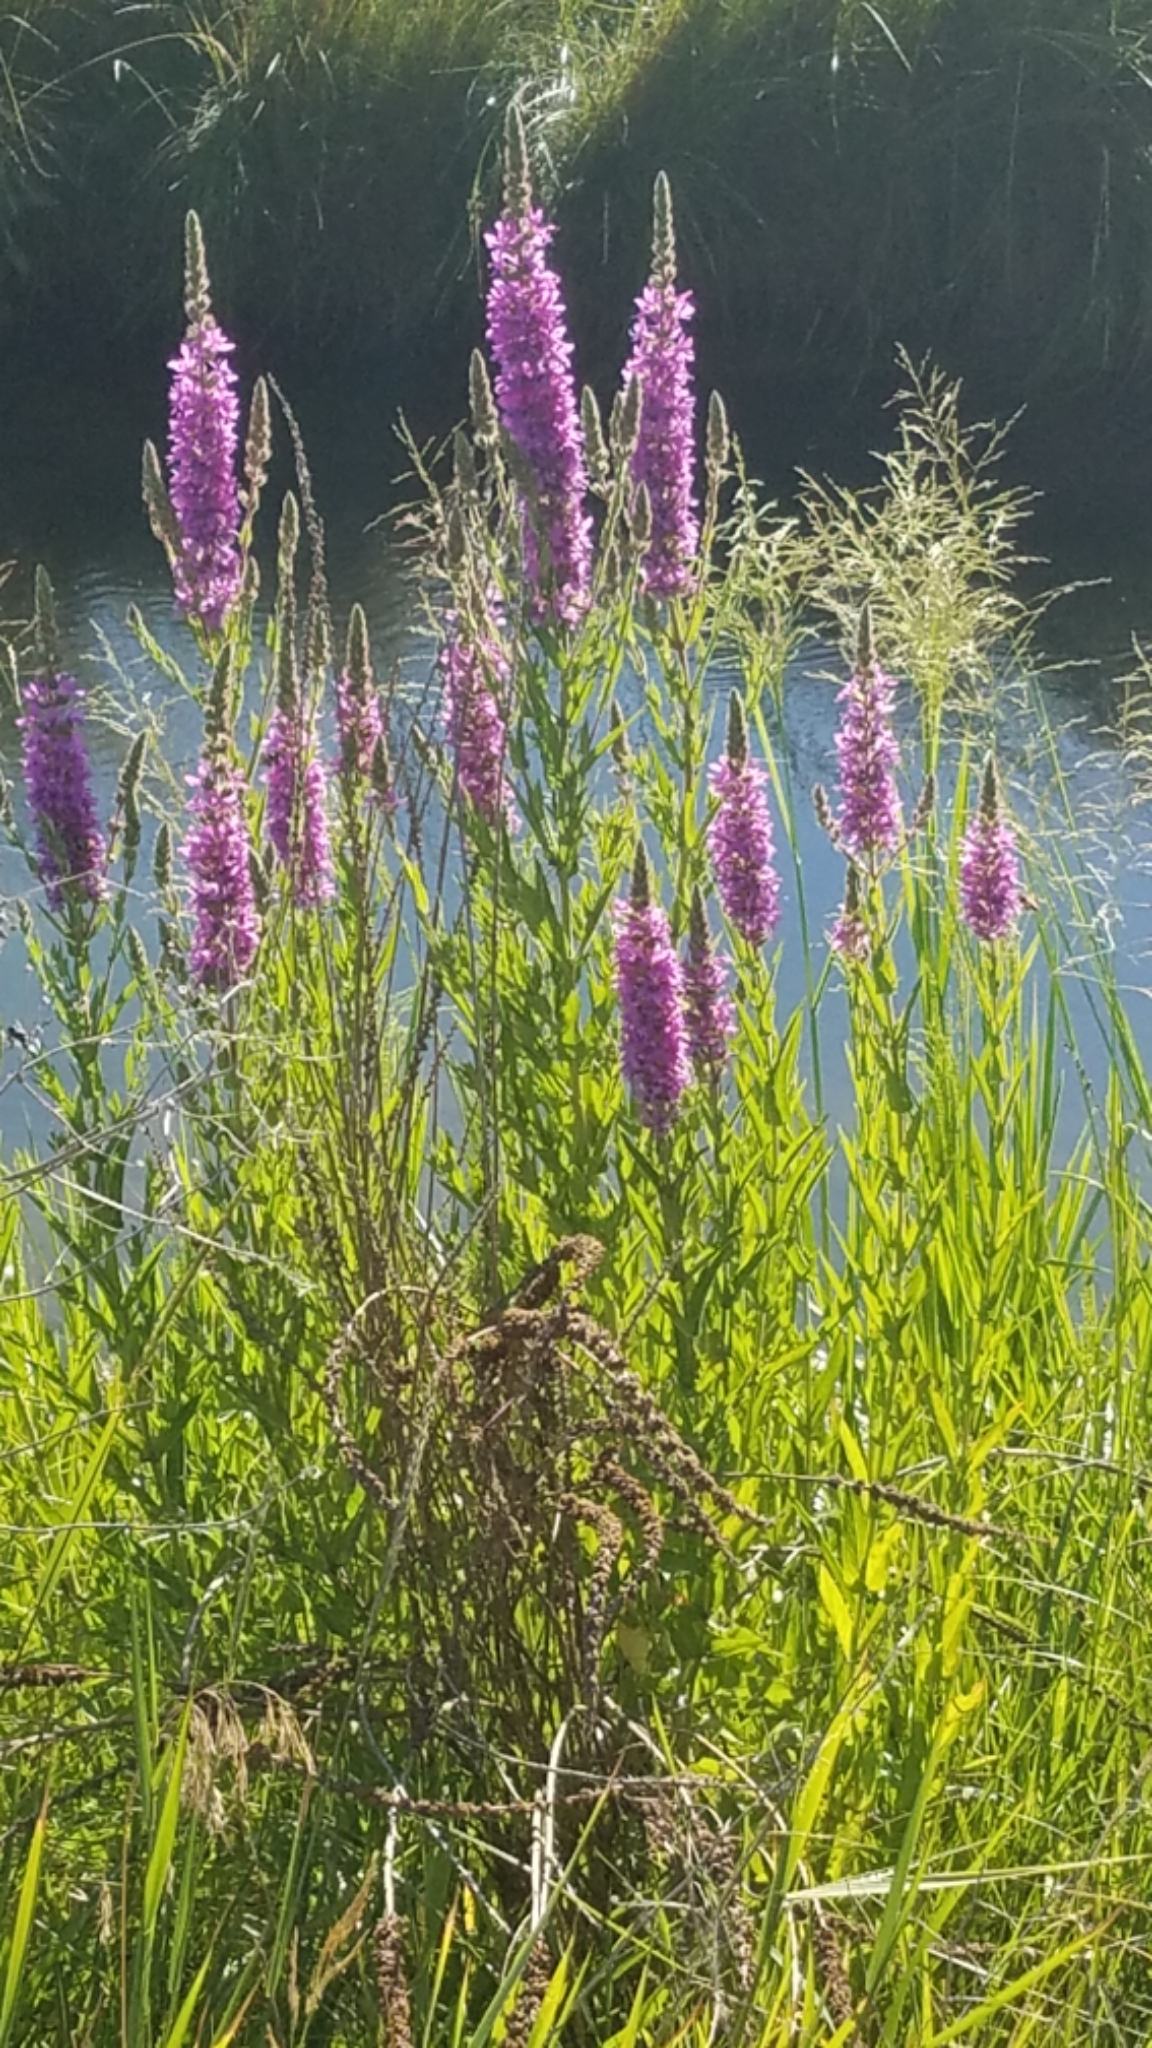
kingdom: Plantae
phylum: Tracheophyta
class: Magnoliopsida
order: Myrtales
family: Lythraceae
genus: Lythrum
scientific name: Lythrum salicaria
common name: Purple loosestrife
